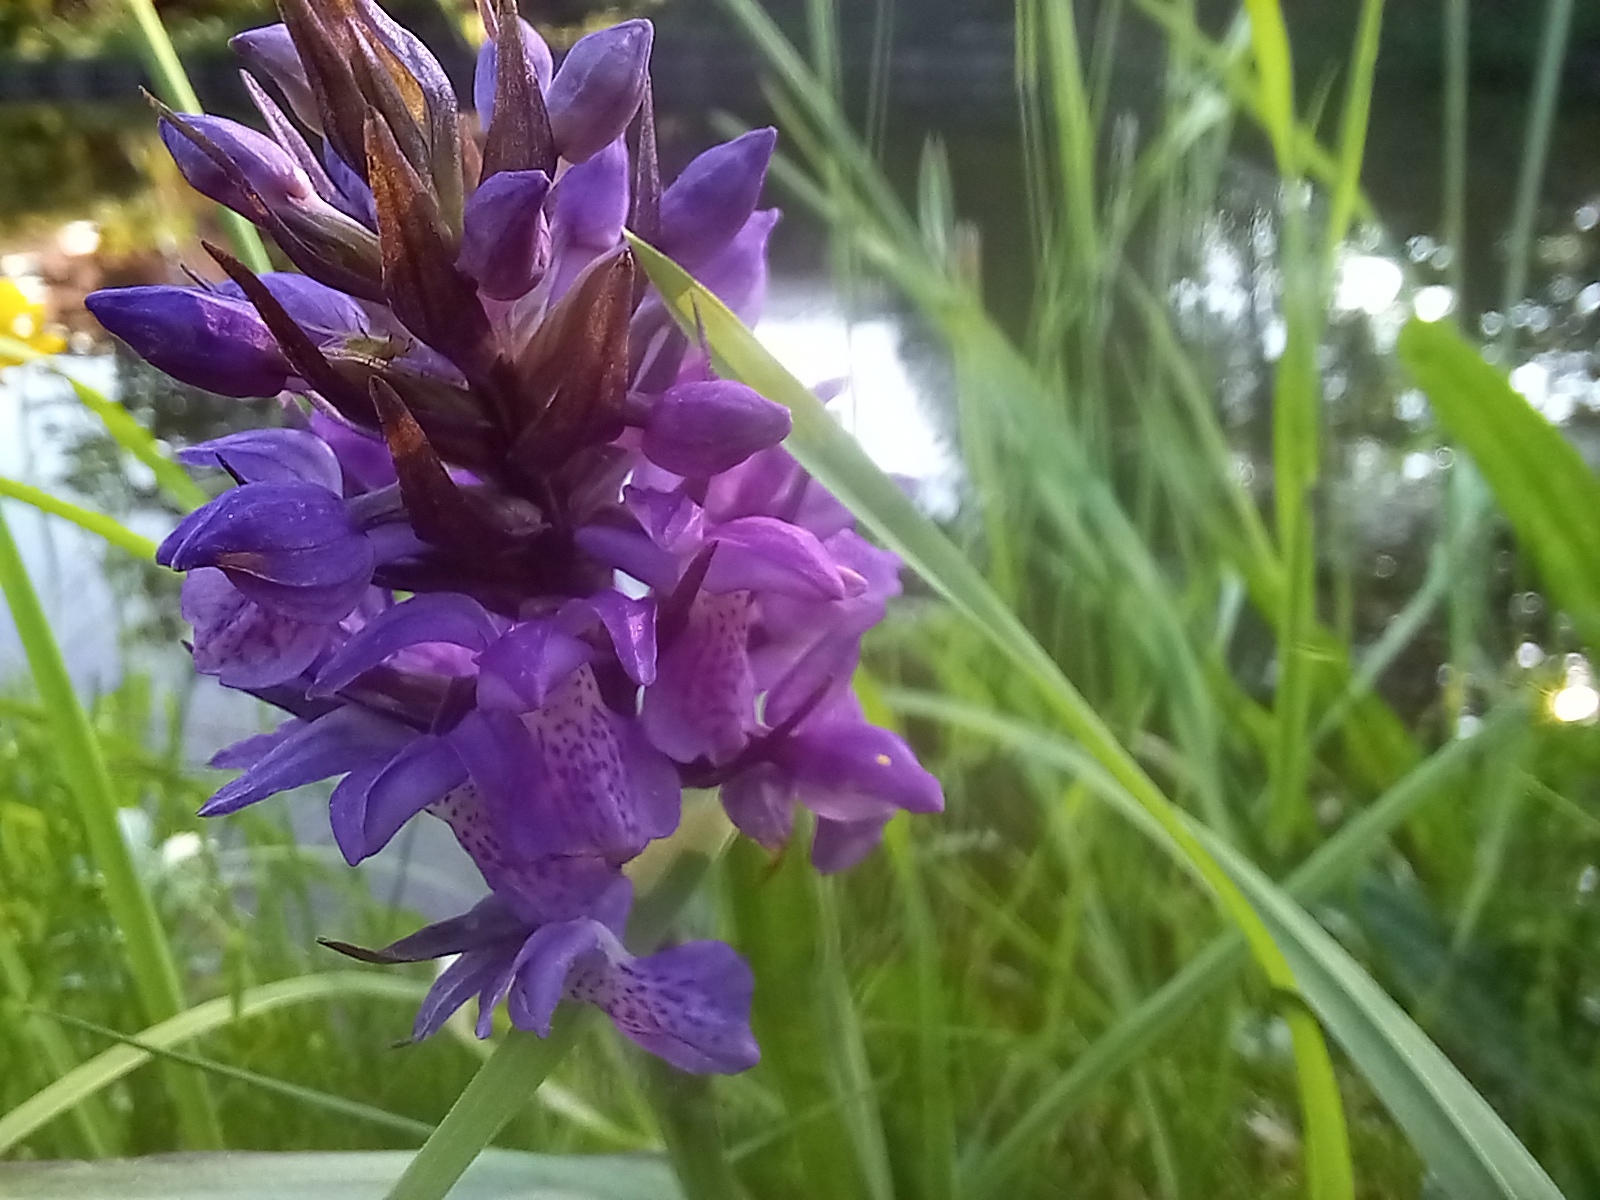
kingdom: Plantae
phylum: Tracheophyta
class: Liliopsida
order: Asparagales
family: Orchidaceae
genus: Dactylorhiza
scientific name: Dactylorhiza majalis
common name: Marsh orchid
